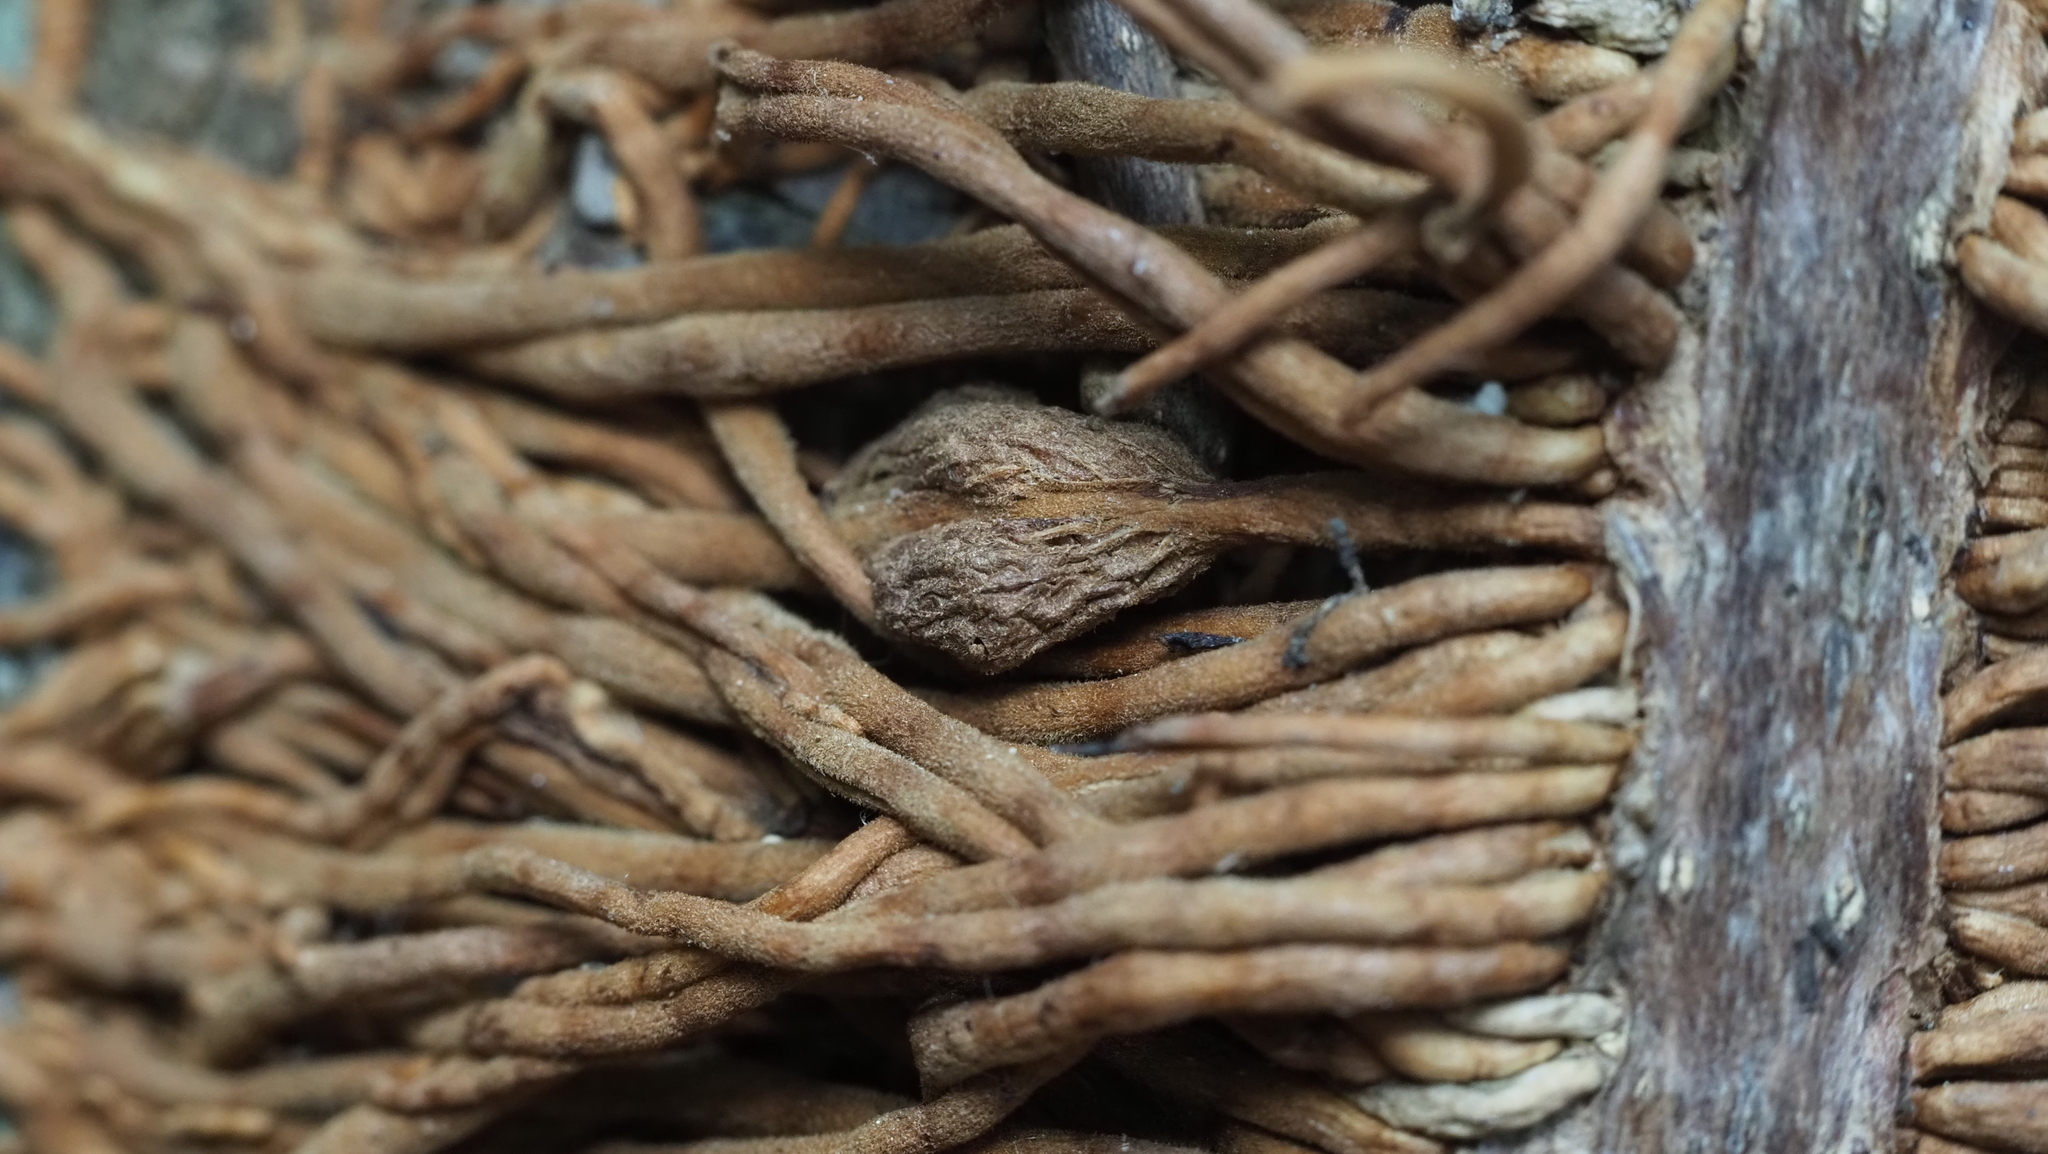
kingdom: Animalia
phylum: Arthropoda
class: Insecta
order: Diptera
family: Cecidomyiidae
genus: Lasioptera
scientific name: Lasioptera psederae
